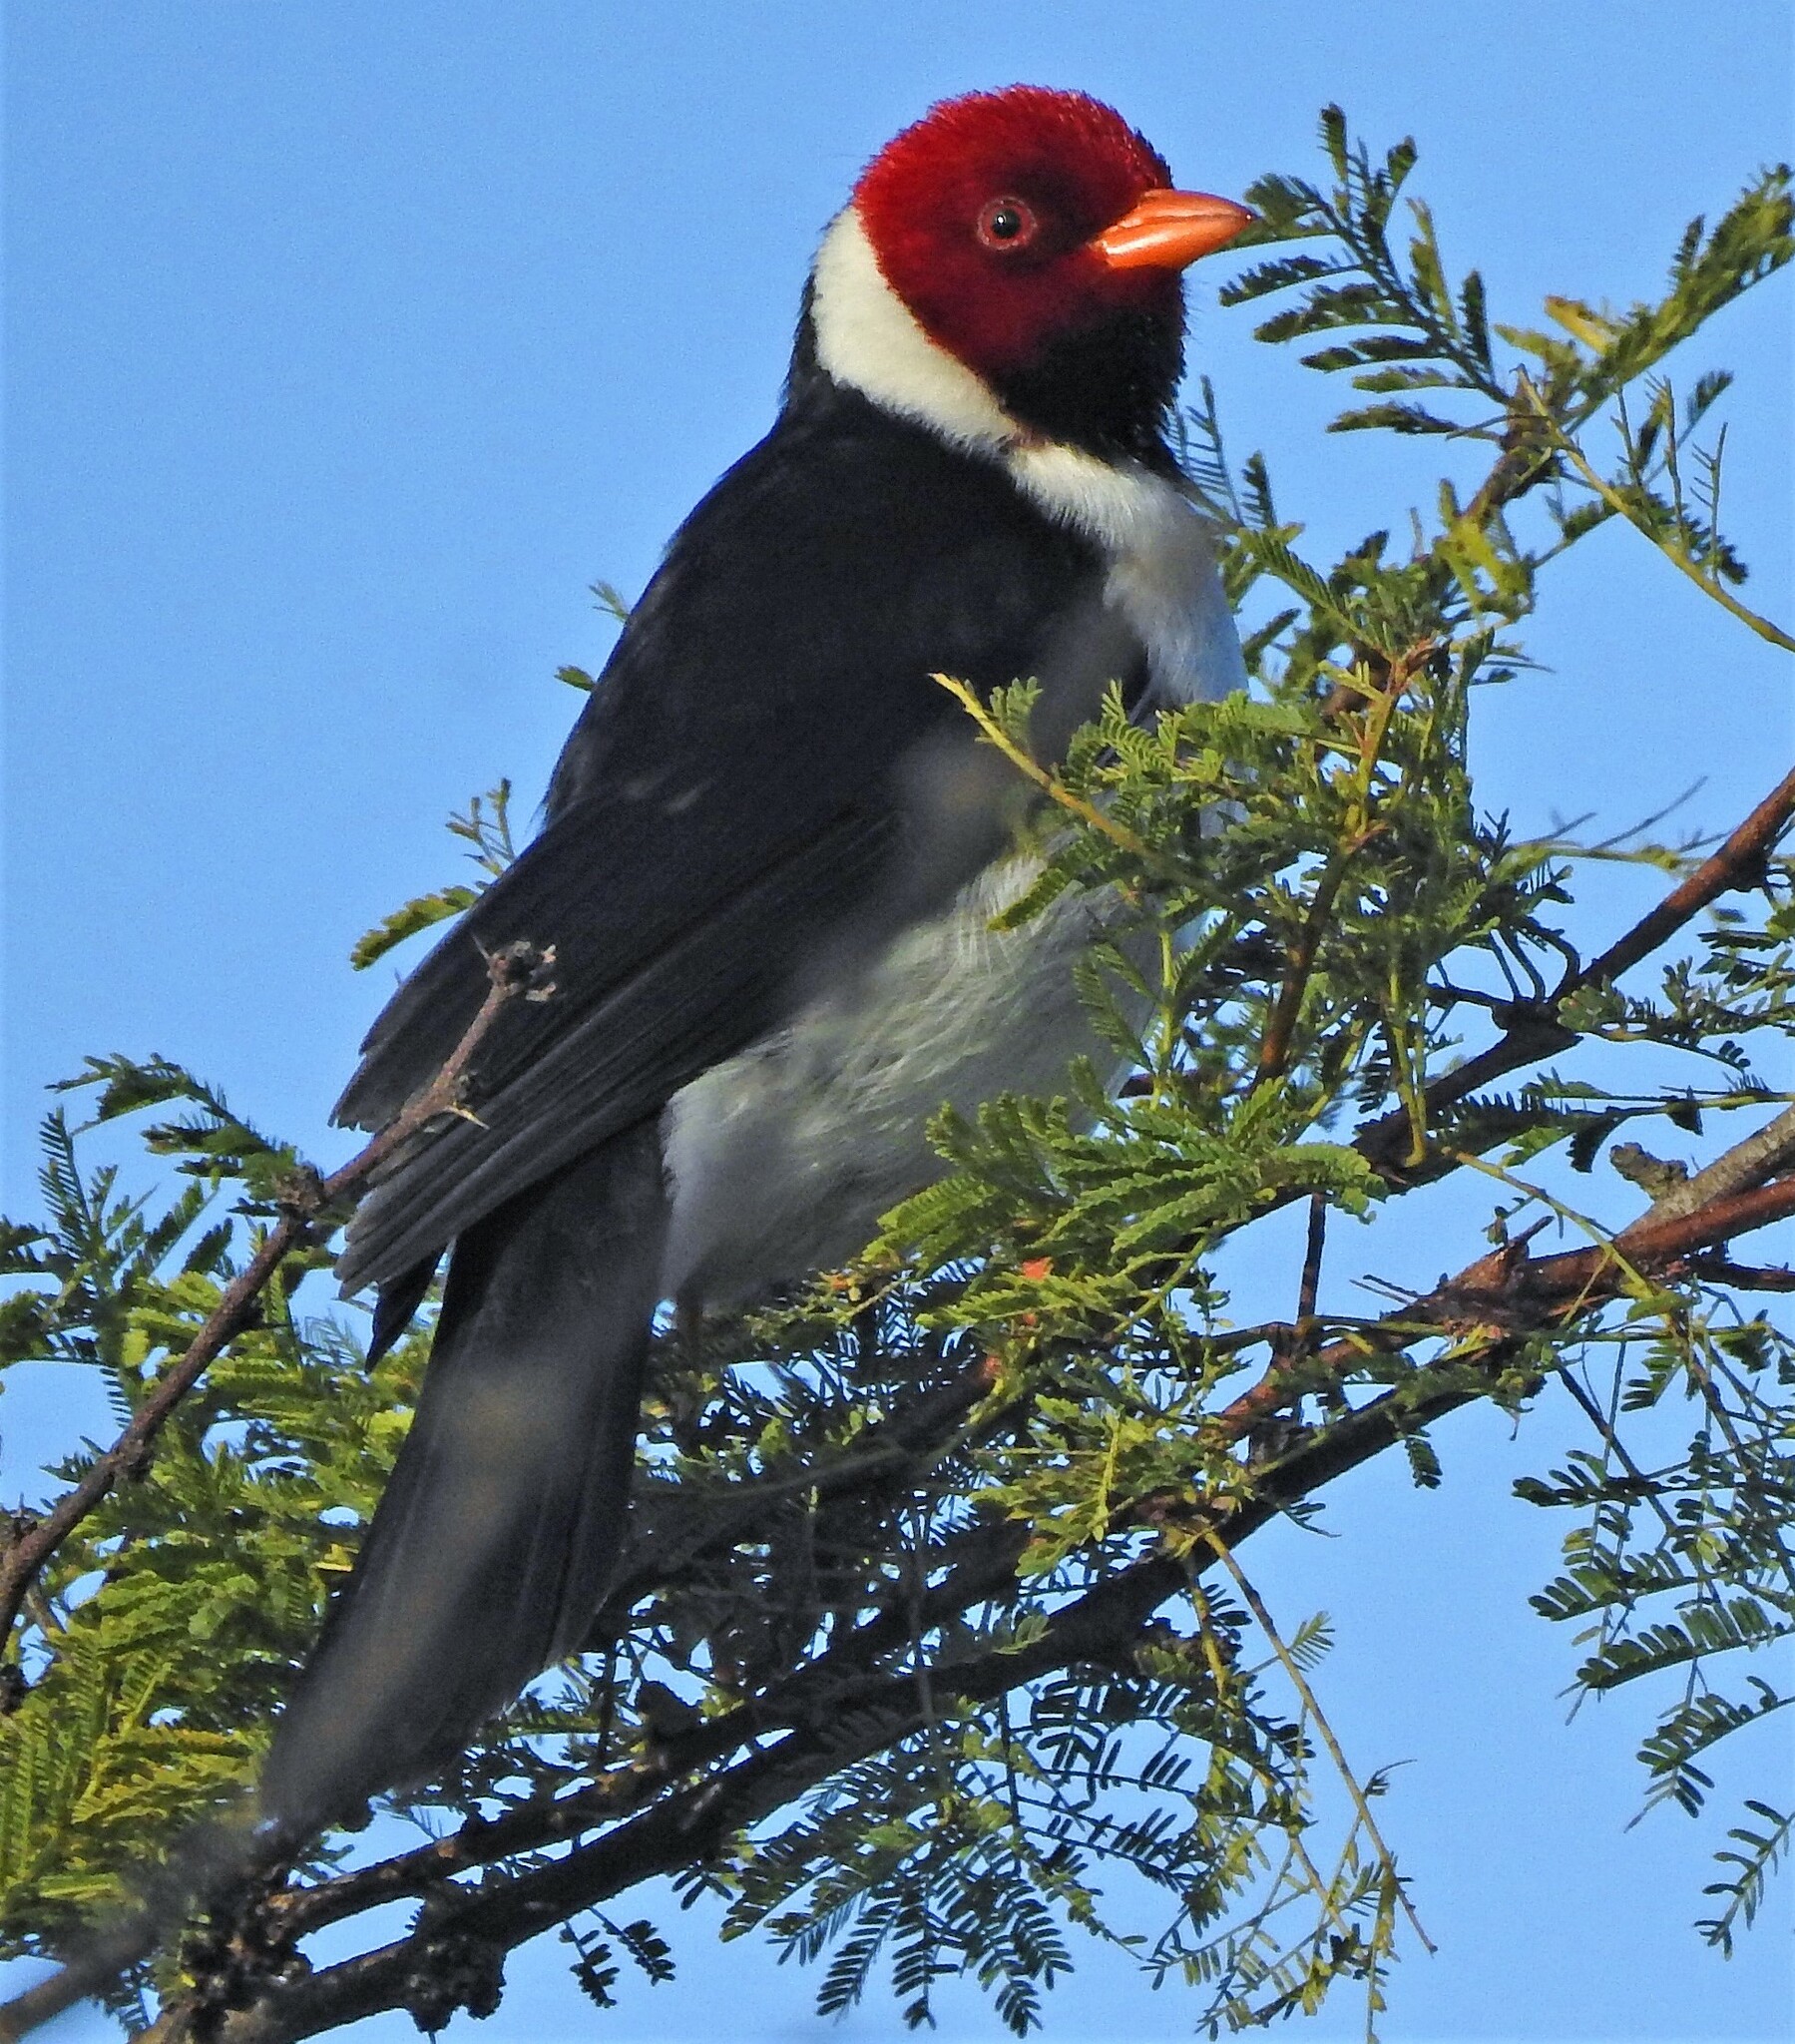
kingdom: Animalia
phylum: Chordata
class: Aves
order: Passeriformes
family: Thraupidae
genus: Paroaria
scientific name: Paroaria capitata
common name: Yellow-billed cardinal
